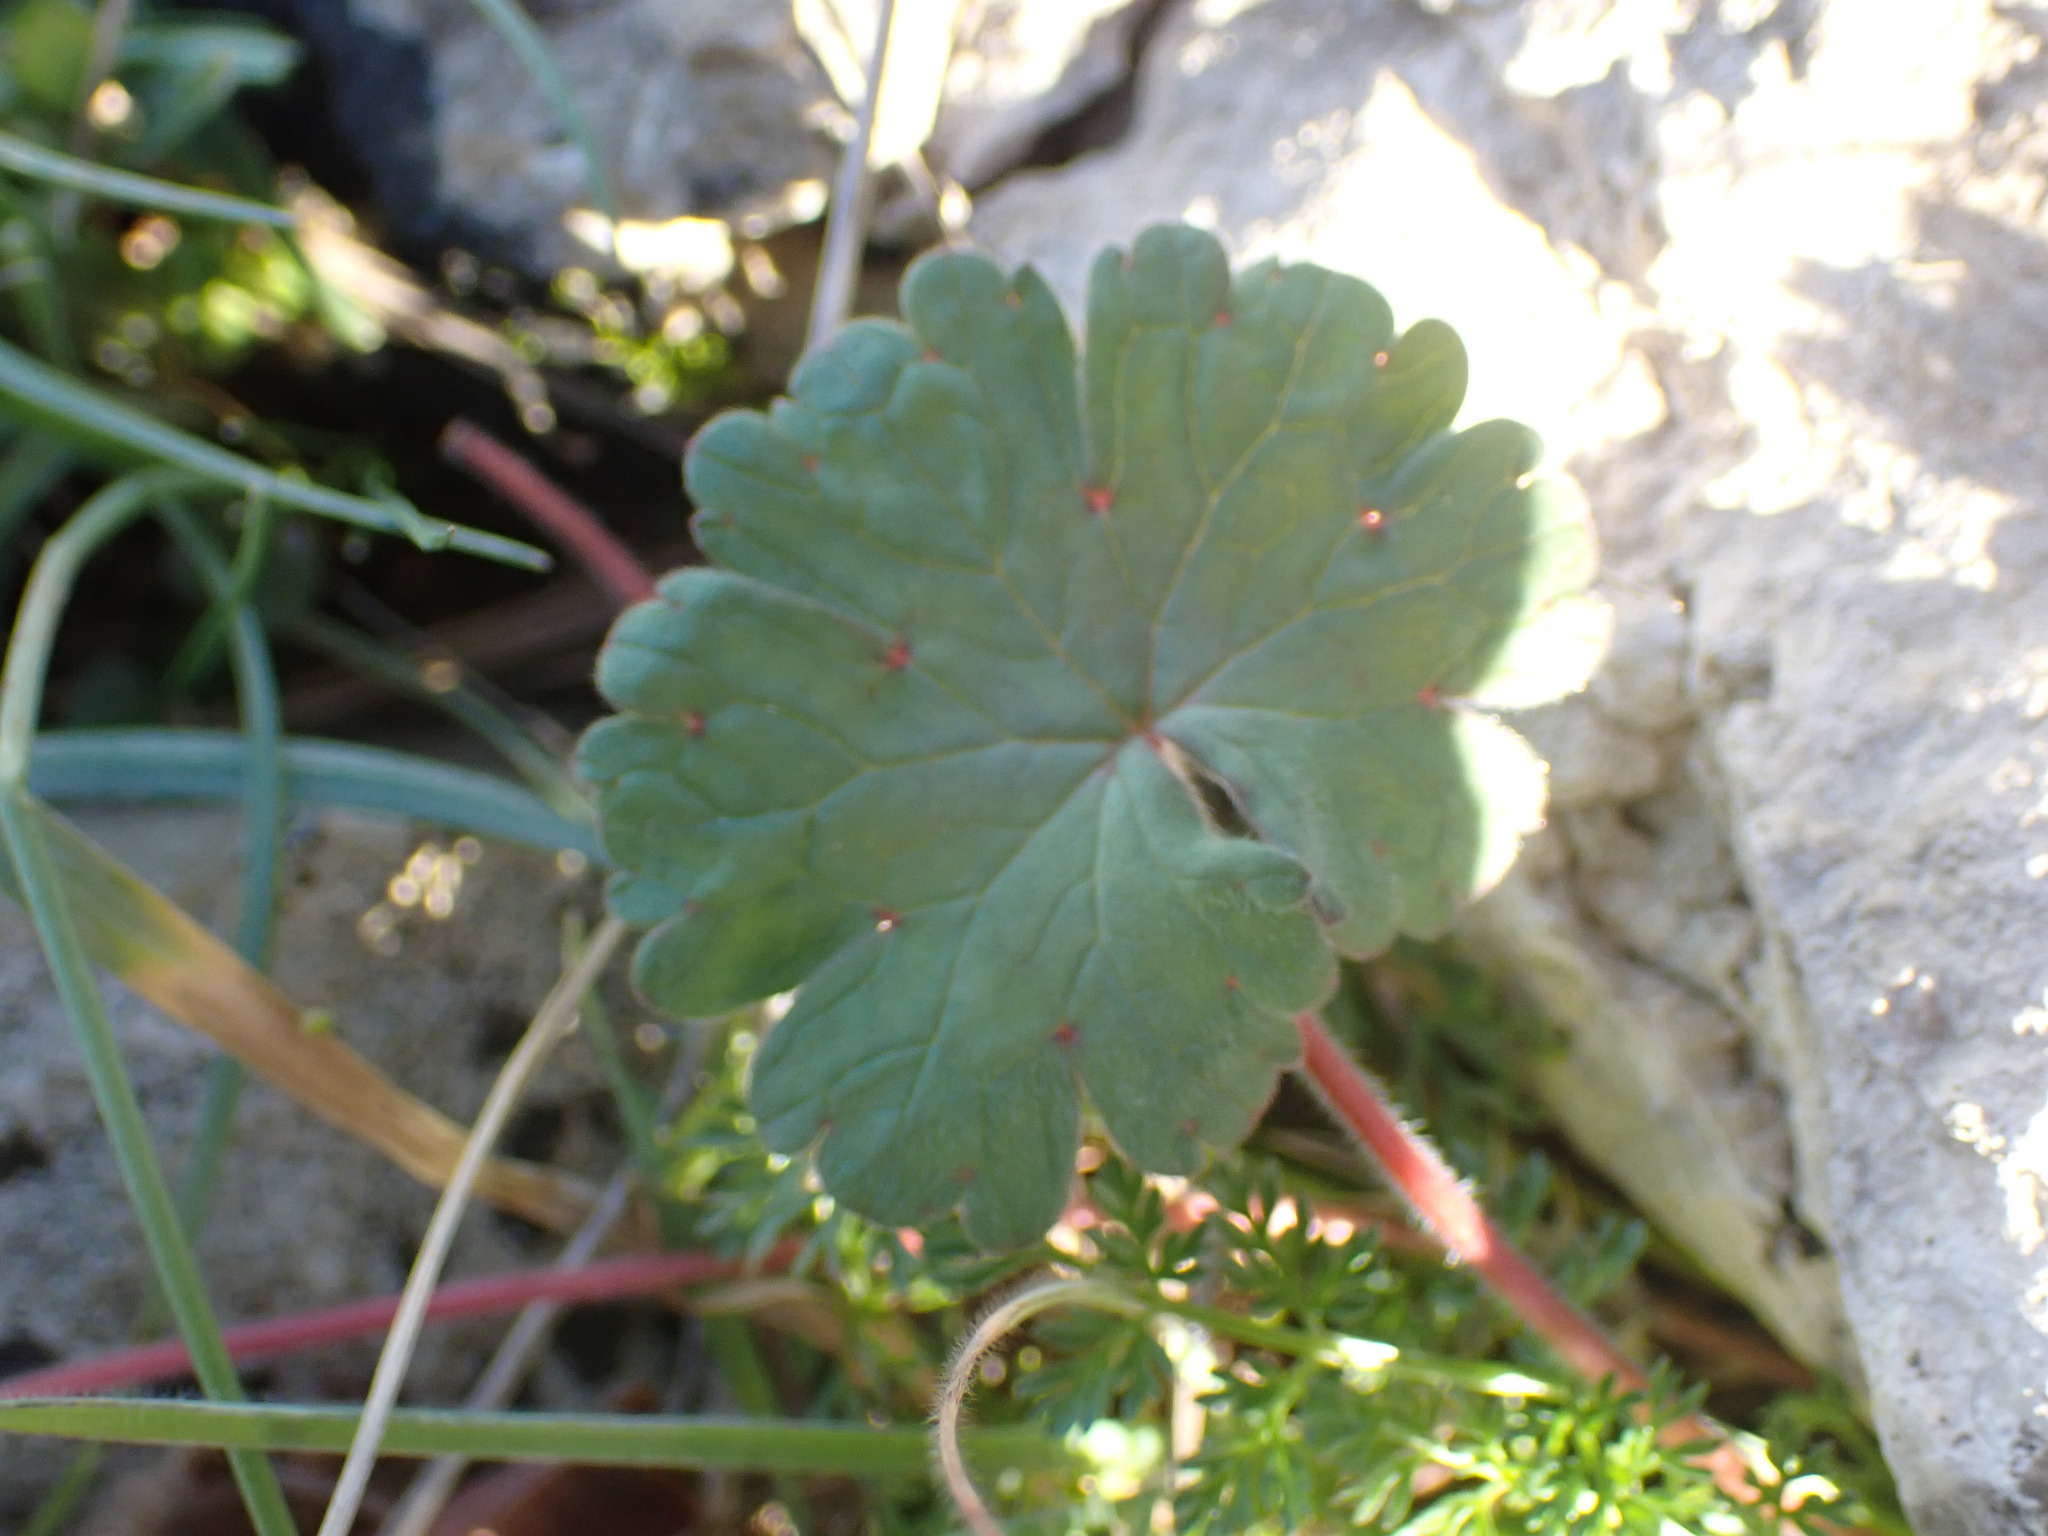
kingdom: Plantae
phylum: Tracheophyta
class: Magnoliopsida
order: Geraniales
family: Geraniaceae
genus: Geranium
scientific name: Geranium rotundifolium
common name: Round-leaved crane's-bill
